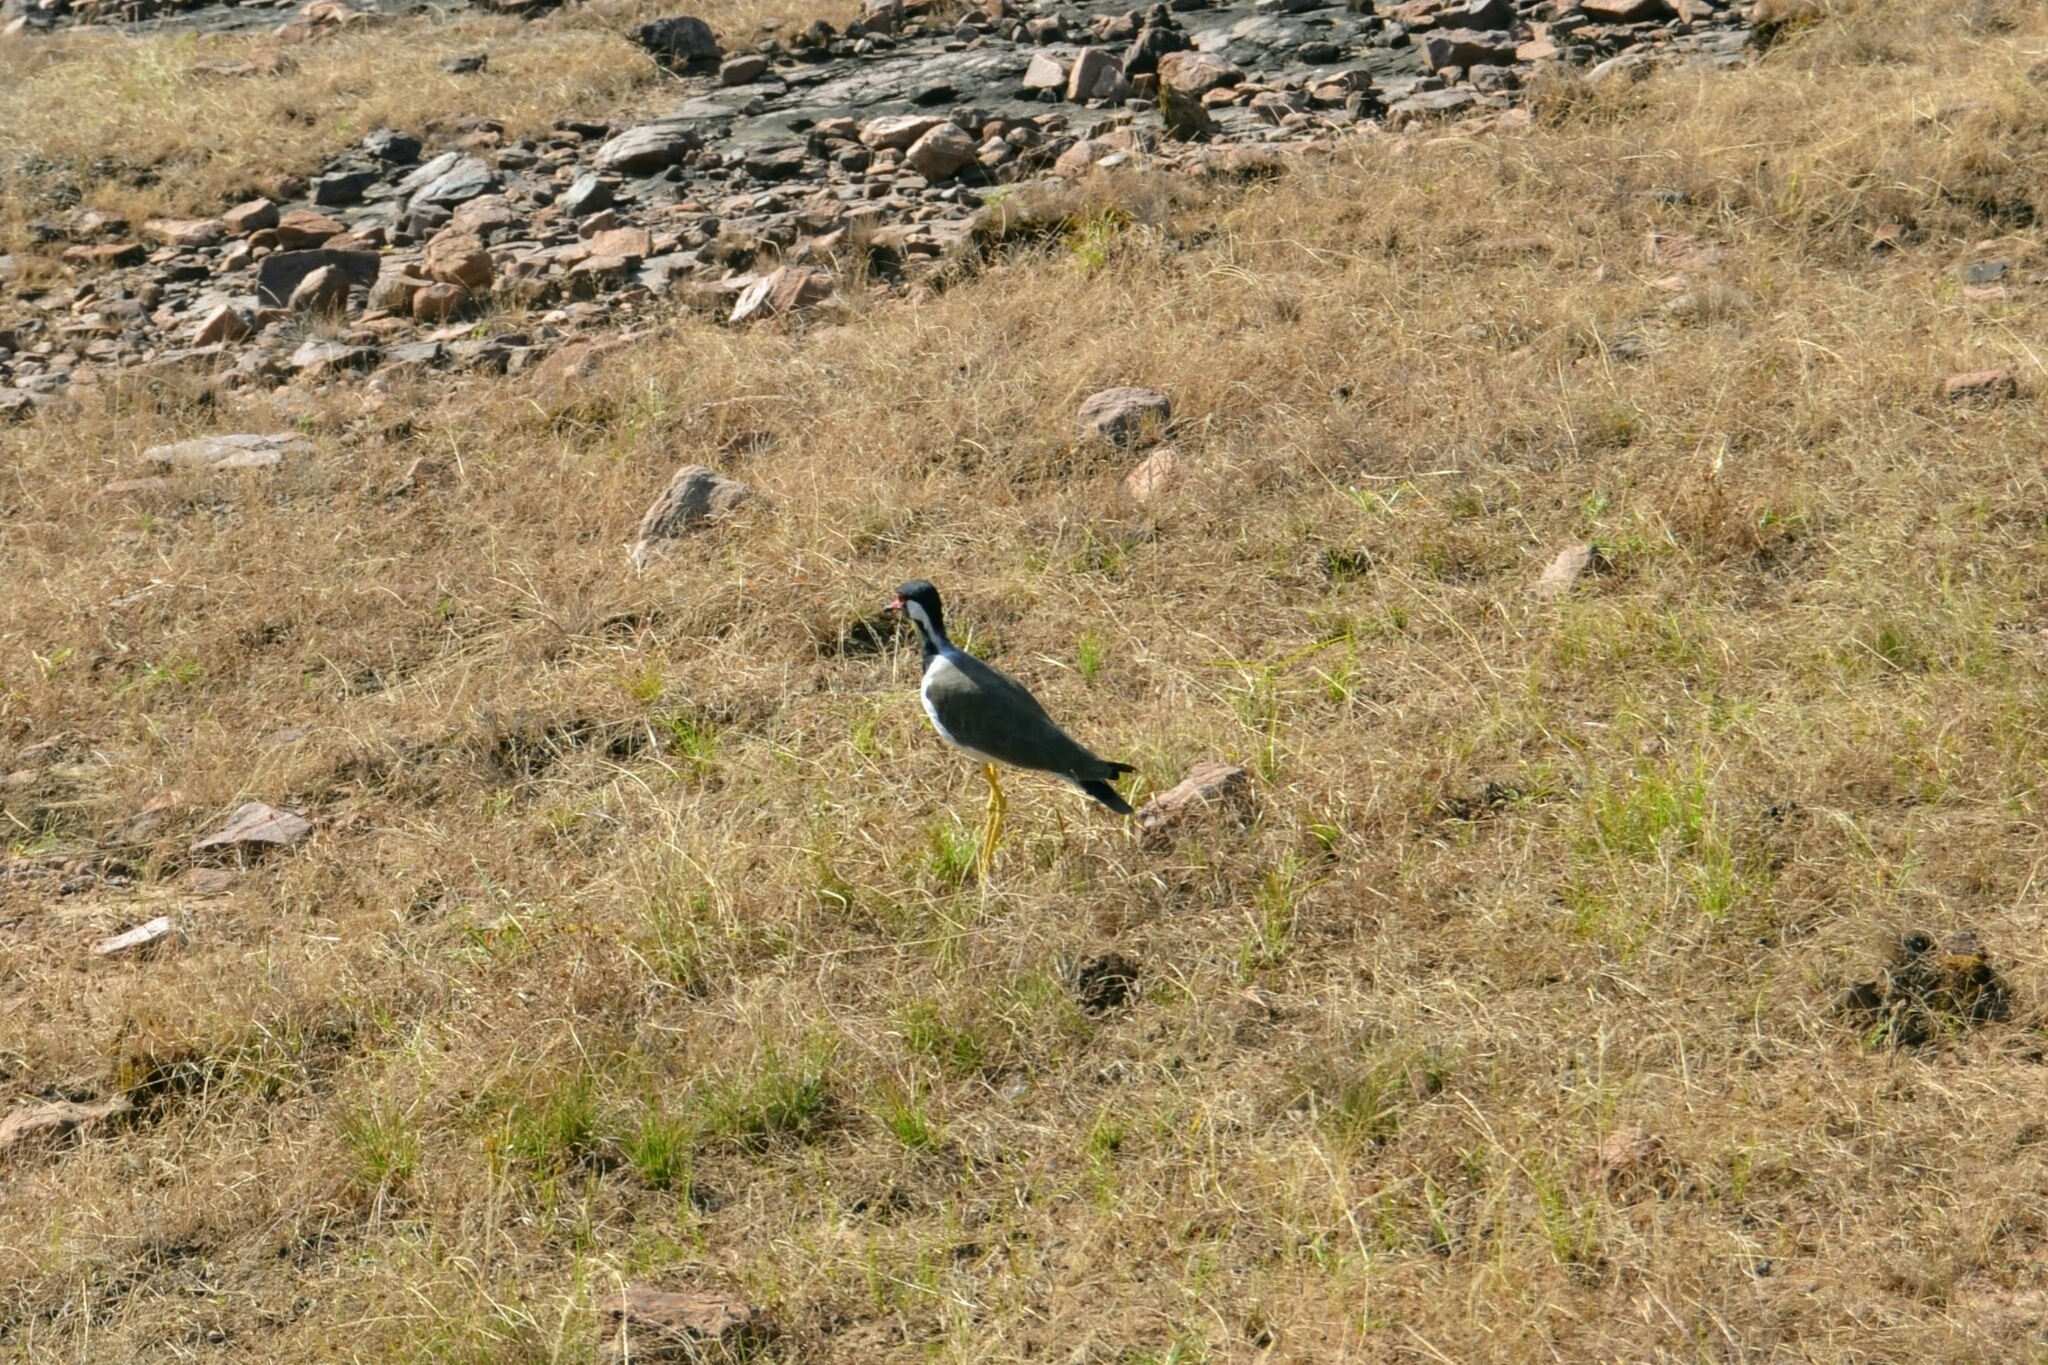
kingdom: Animalia
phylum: Chordata
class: Aves
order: Charadriiformes
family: Charadriidae
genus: Vanellus
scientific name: Vanellus indicus
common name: Red-wattled lapwing
